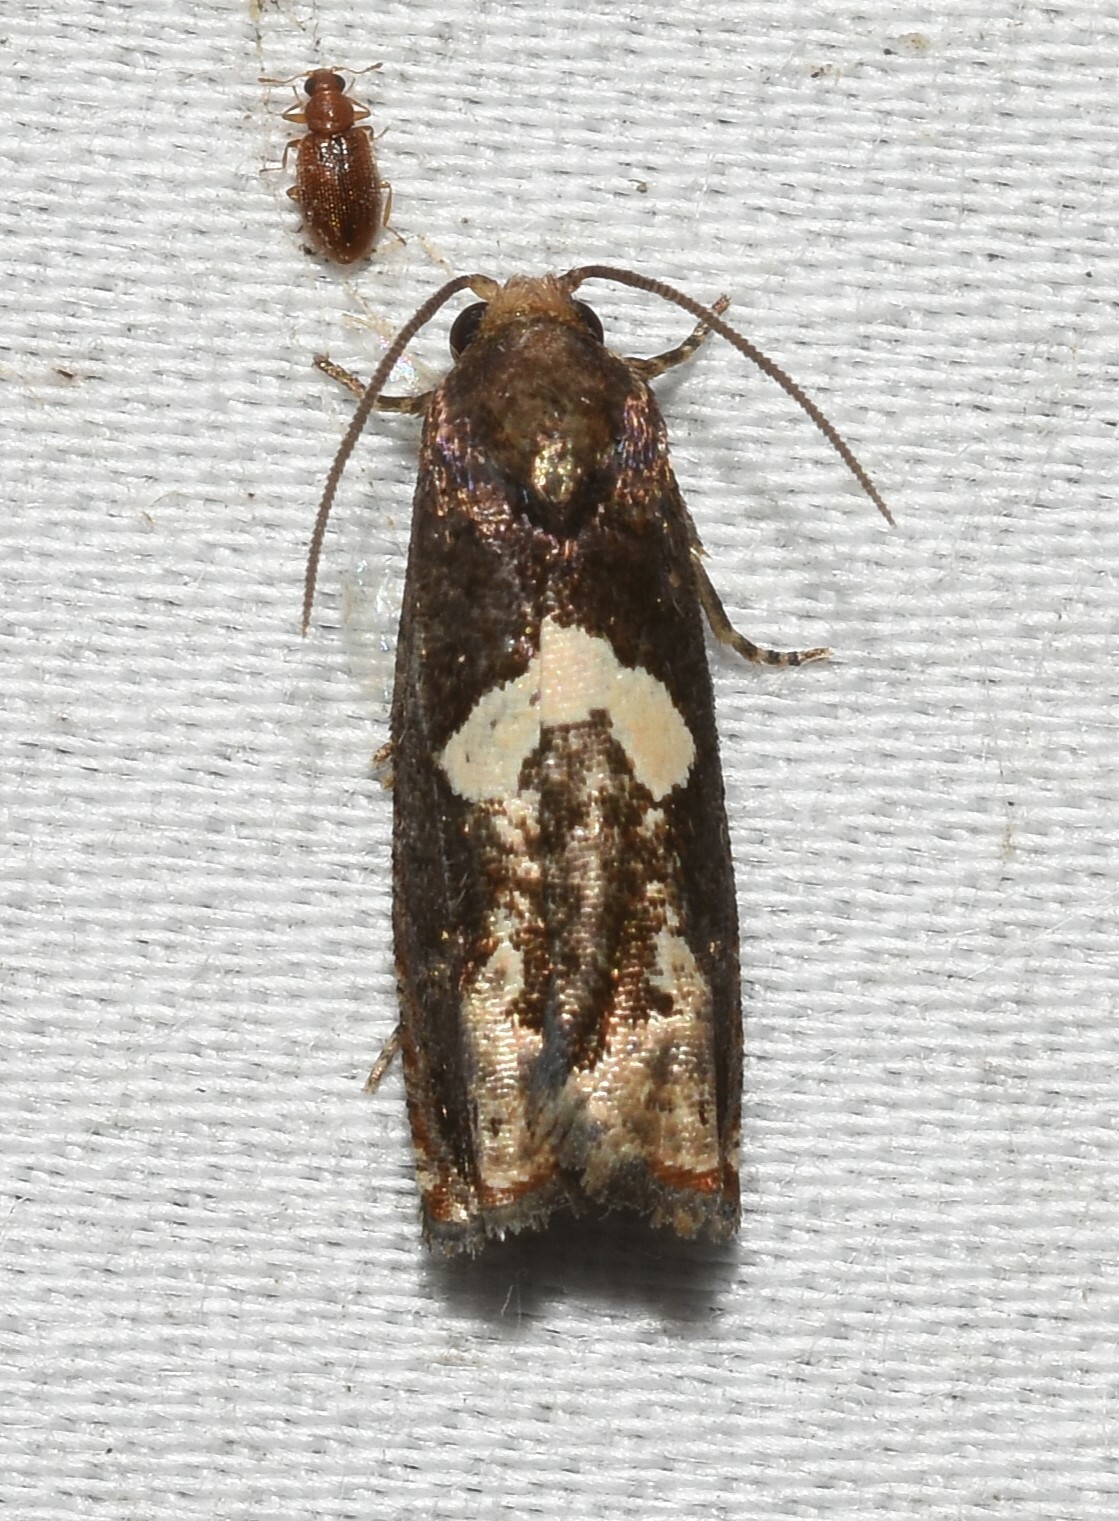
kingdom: Animalia
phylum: Arthropoda
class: Insecta
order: Lepidoptera
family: Tortricidae
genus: Epiblema
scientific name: Epiblema otiosana
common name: Bidens borer moth
